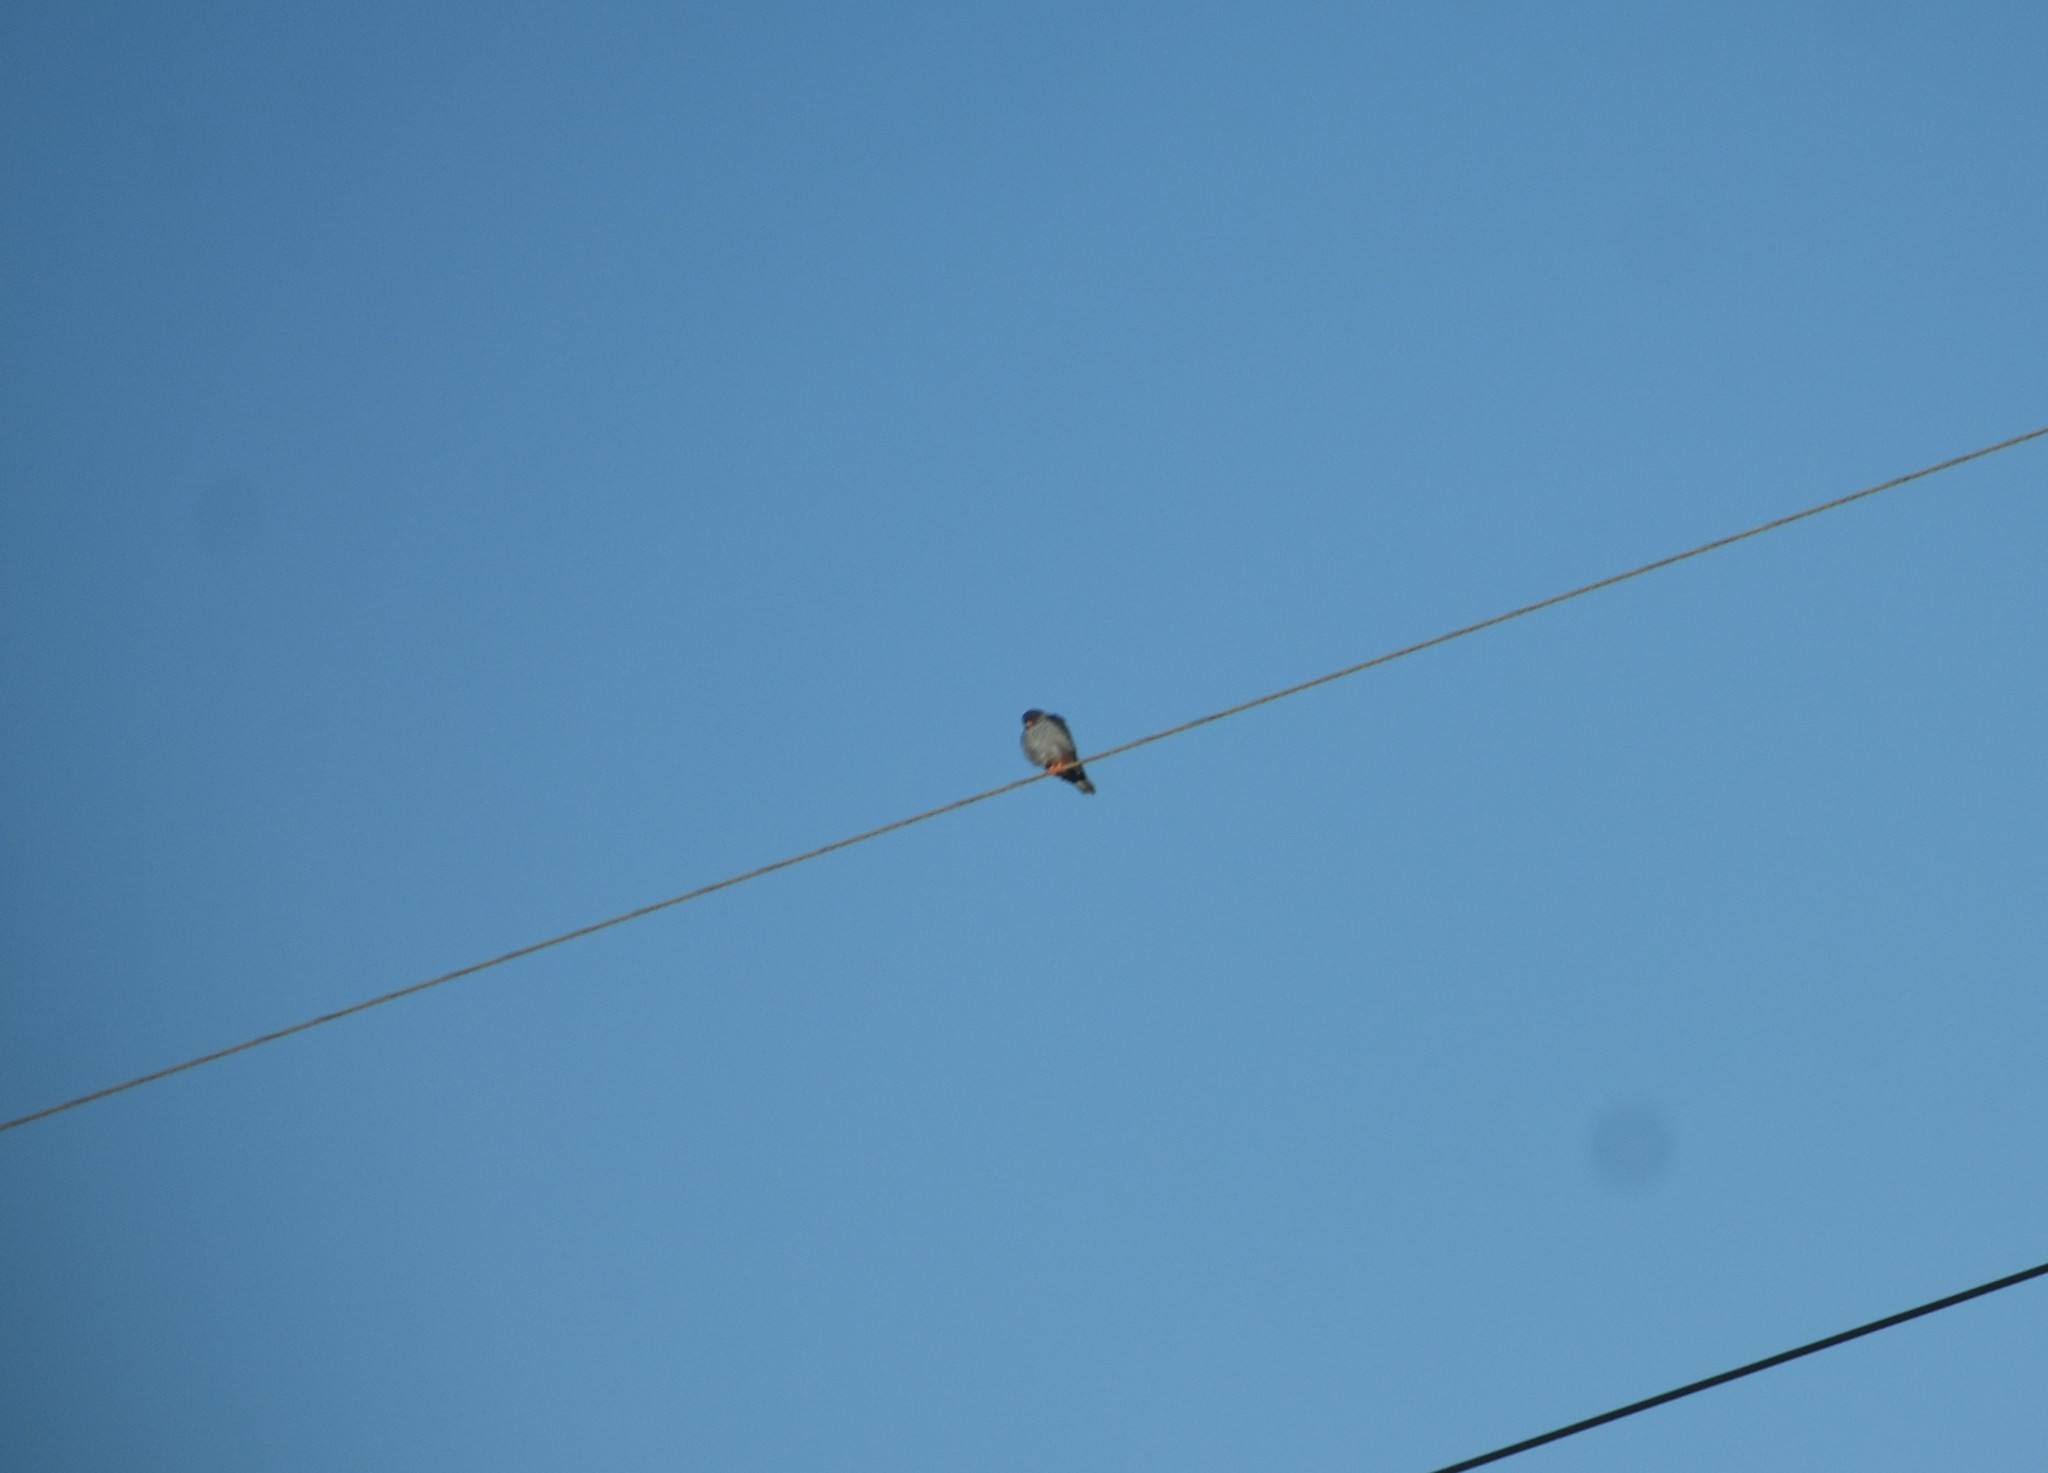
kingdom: Animalia
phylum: Chordata
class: Aves
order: Falconiformes
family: Falconidae
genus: Falco
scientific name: Falco amurensis
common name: Amur falcon
